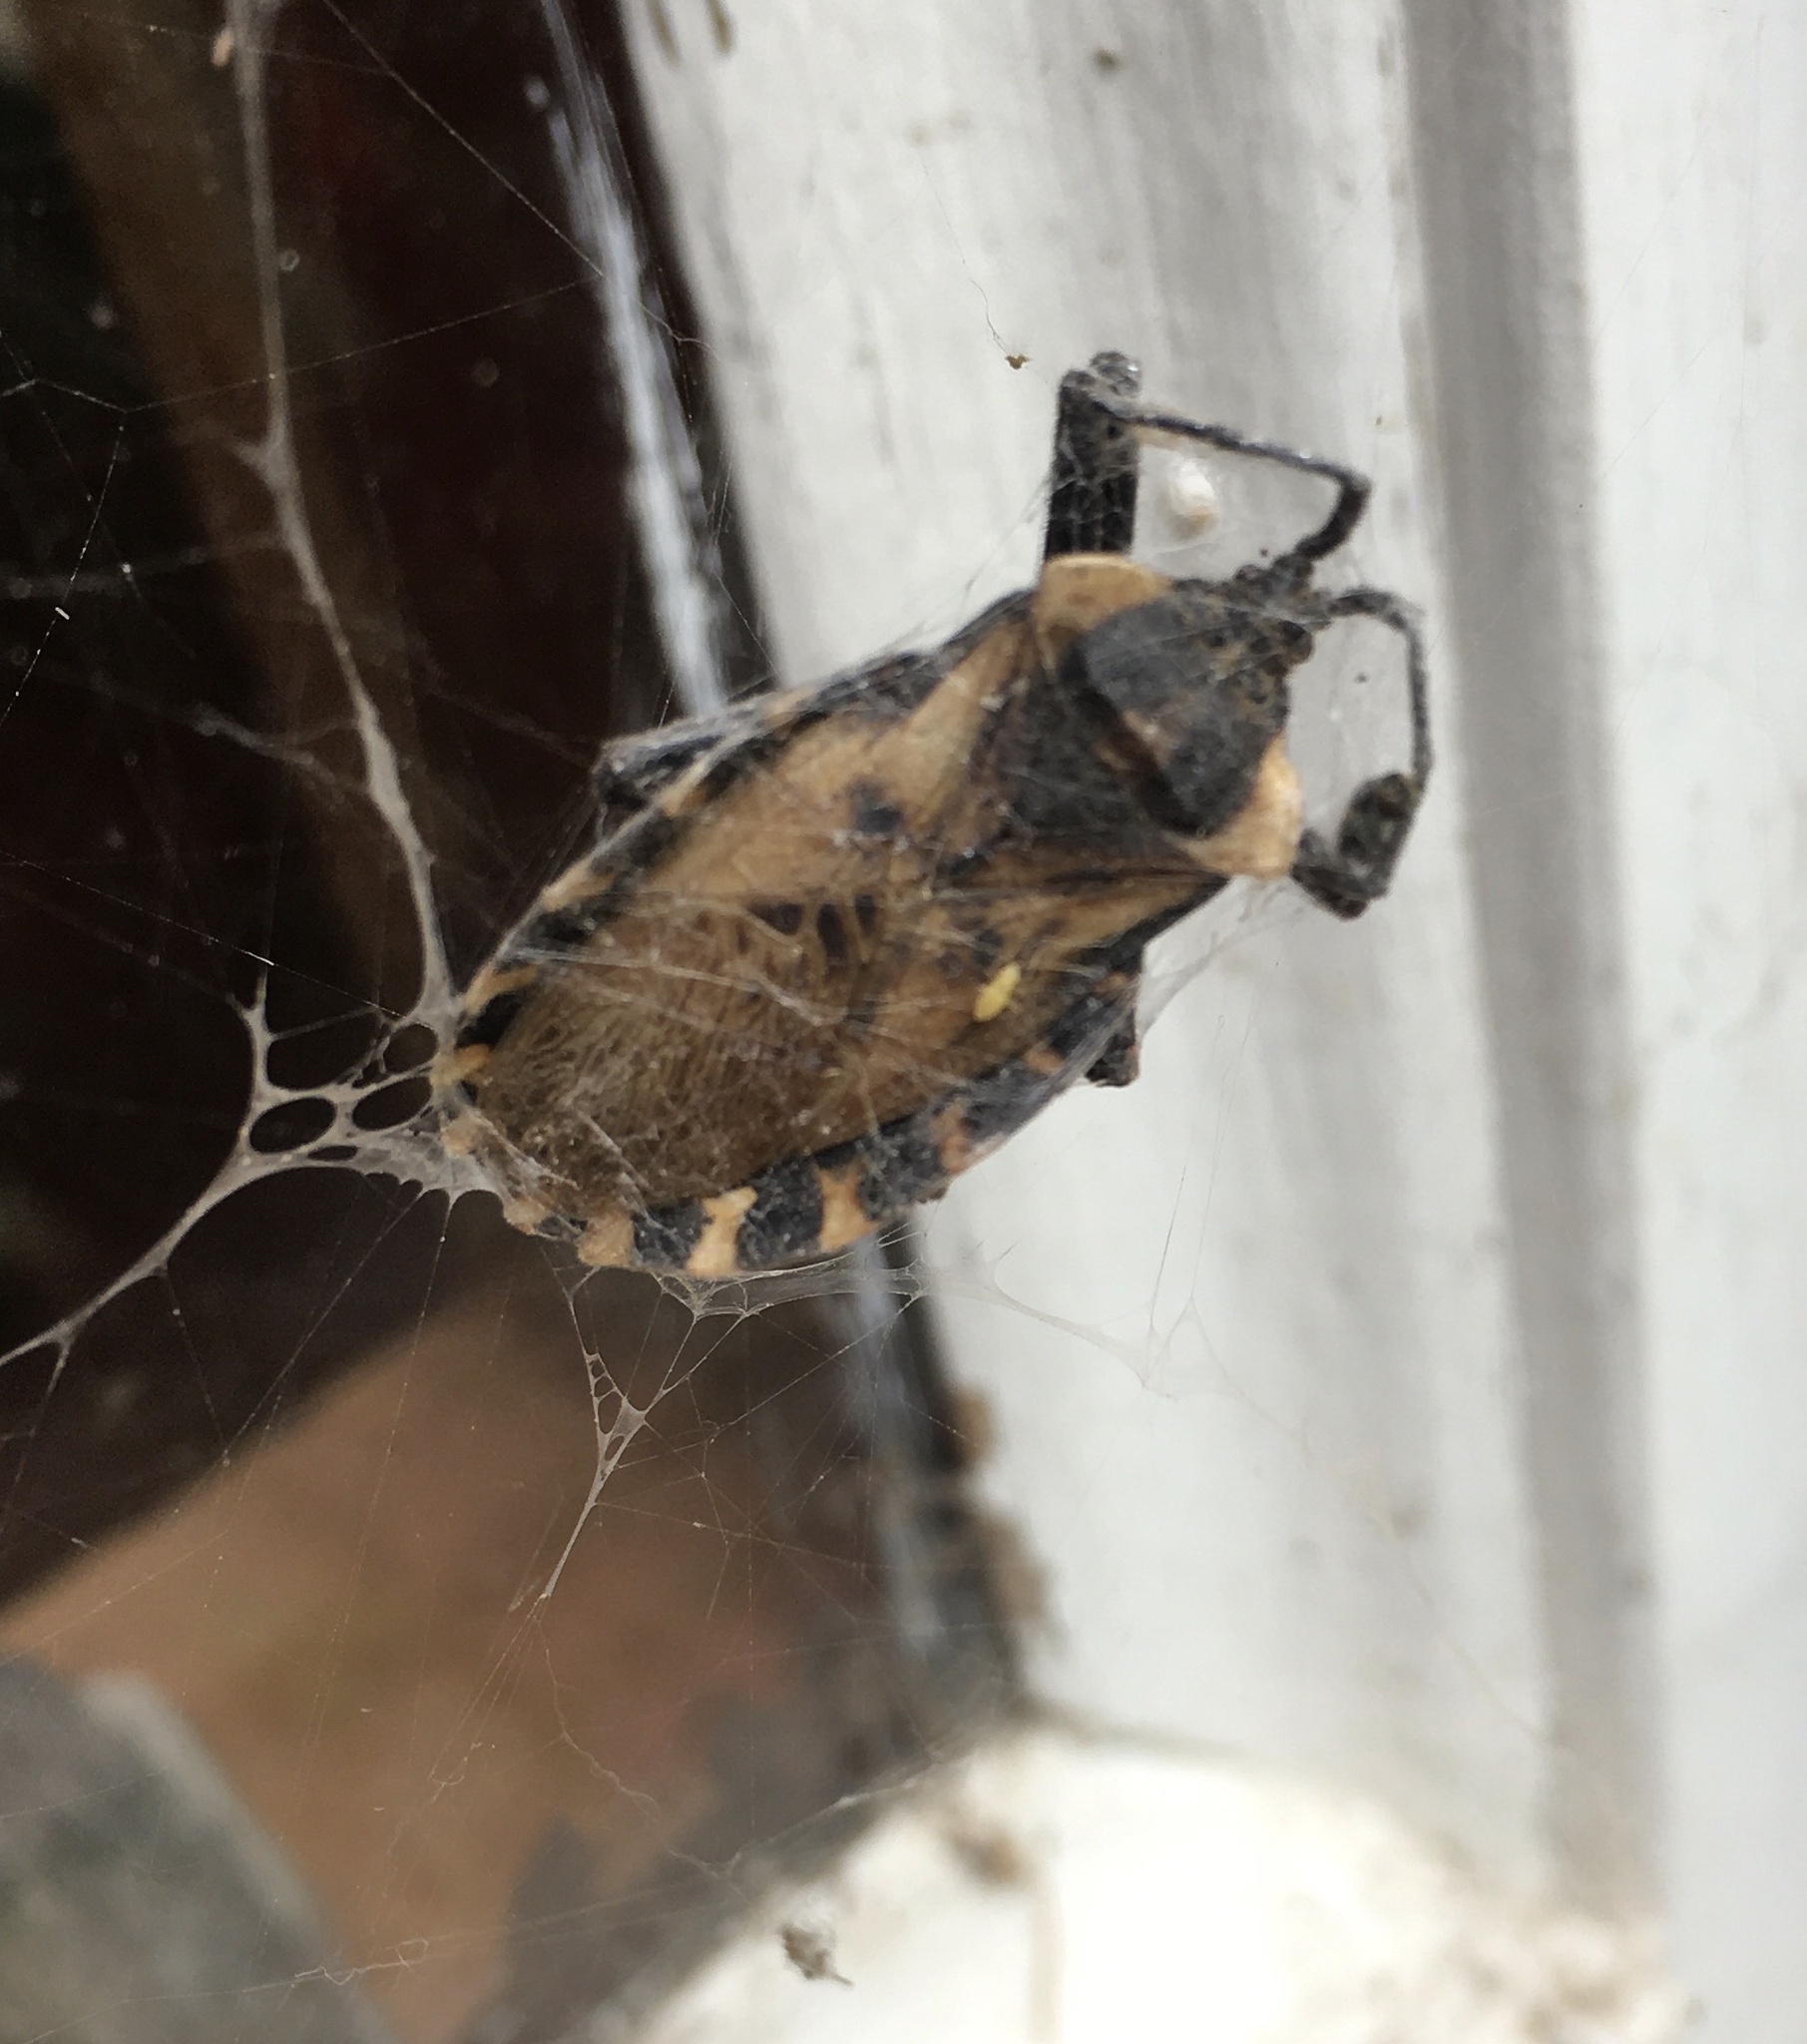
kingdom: Animalia
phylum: Arthropoda
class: Insecta
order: Hemiptera
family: Coreidae
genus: Spartocera
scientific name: Spartocera alternata
